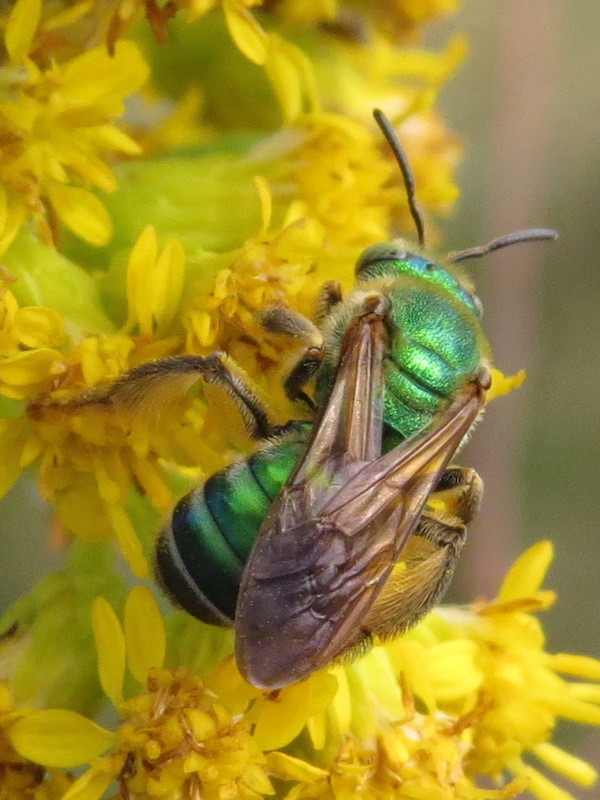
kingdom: Animalia
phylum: Arthropoda
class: Insecta
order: Hymenoptera
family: Halictidae
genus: Agapostemon
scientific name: Agapostemon splendens
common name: Brown-winged striped sweat bee
